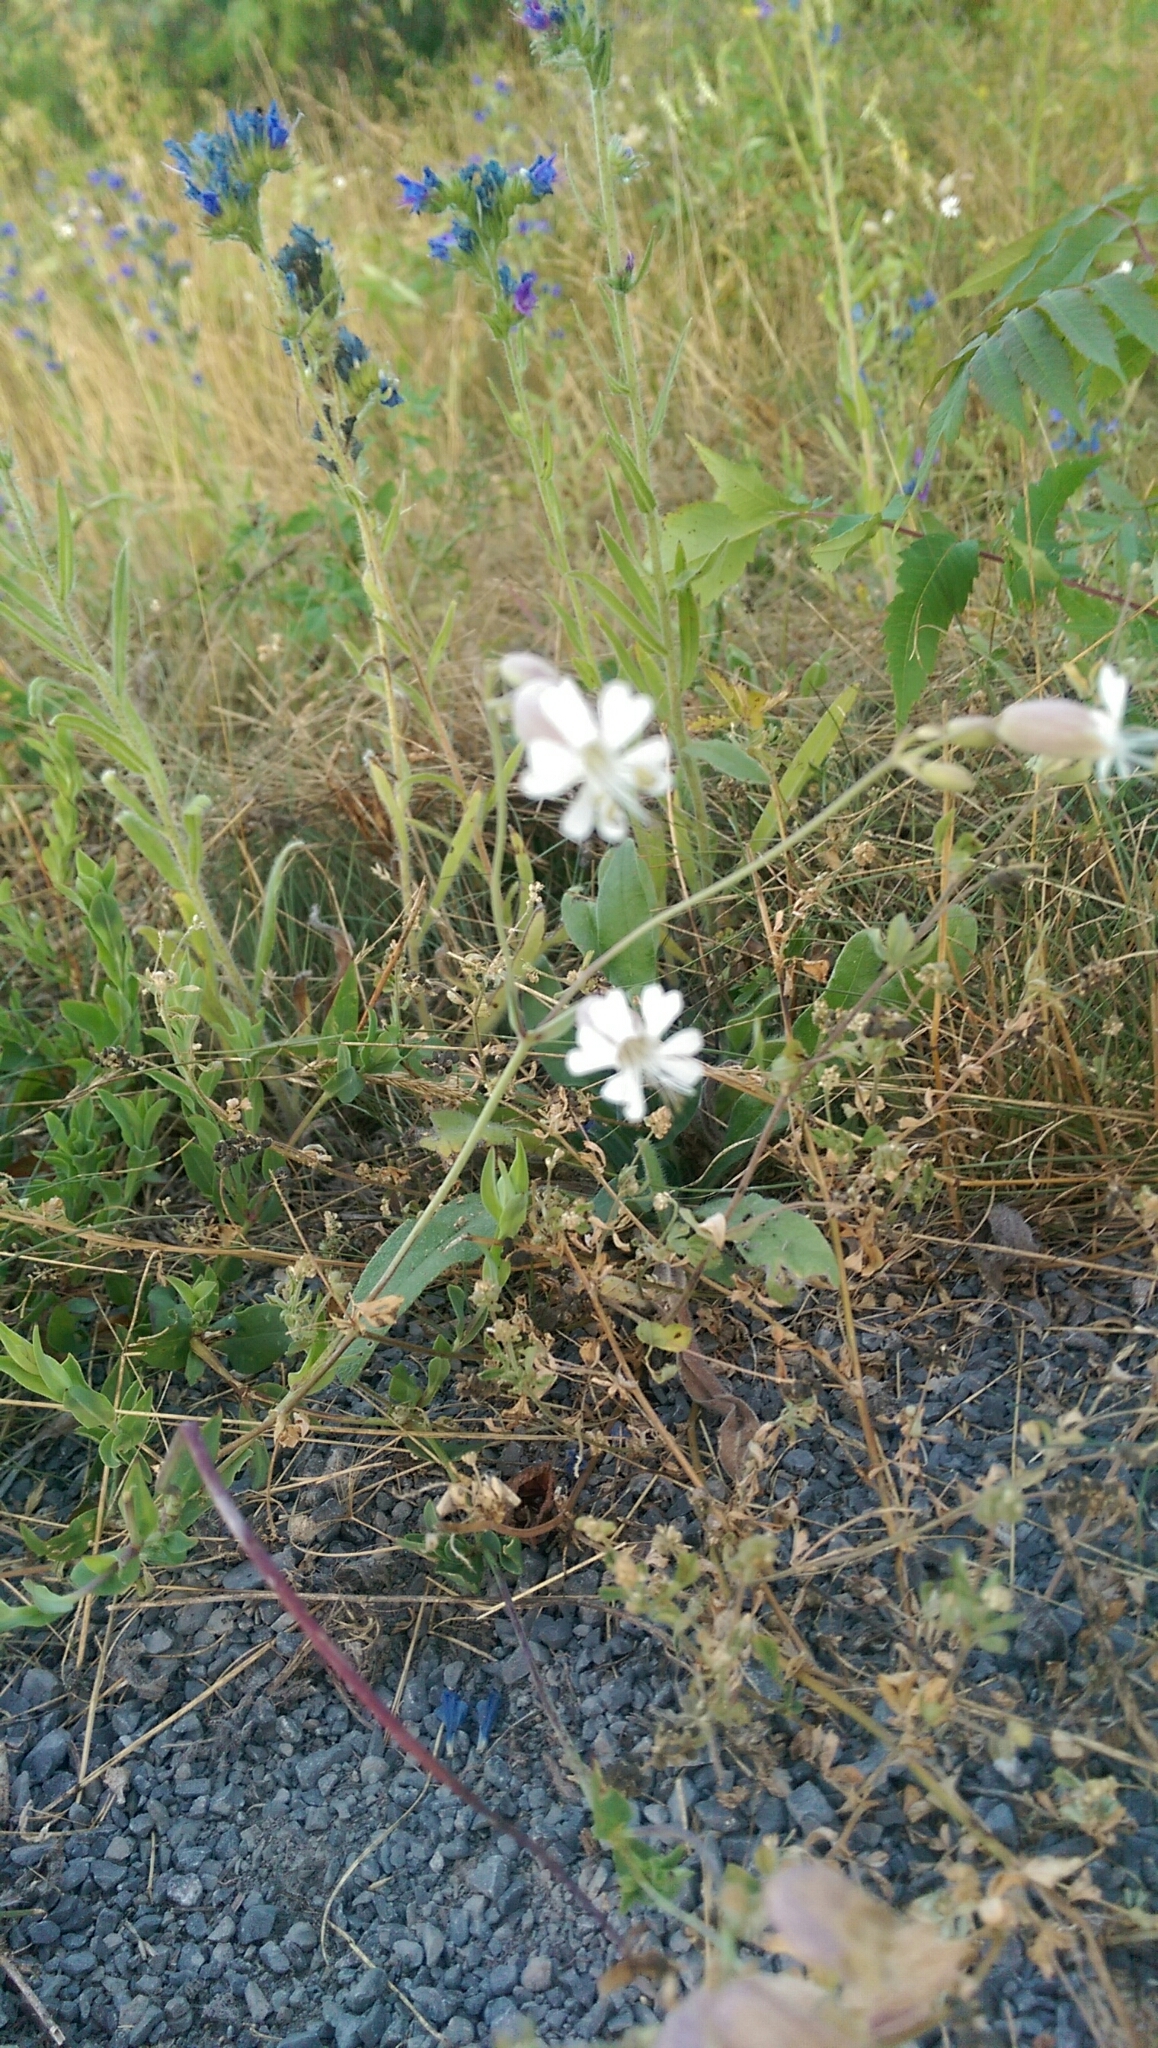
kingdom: Plantae
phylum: Tracheophyta
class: Magnoliopsida
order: Caryophyllales
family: Caryophyllaceae
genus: Silene
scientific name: Silene vulgaris
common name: Bladder campion
